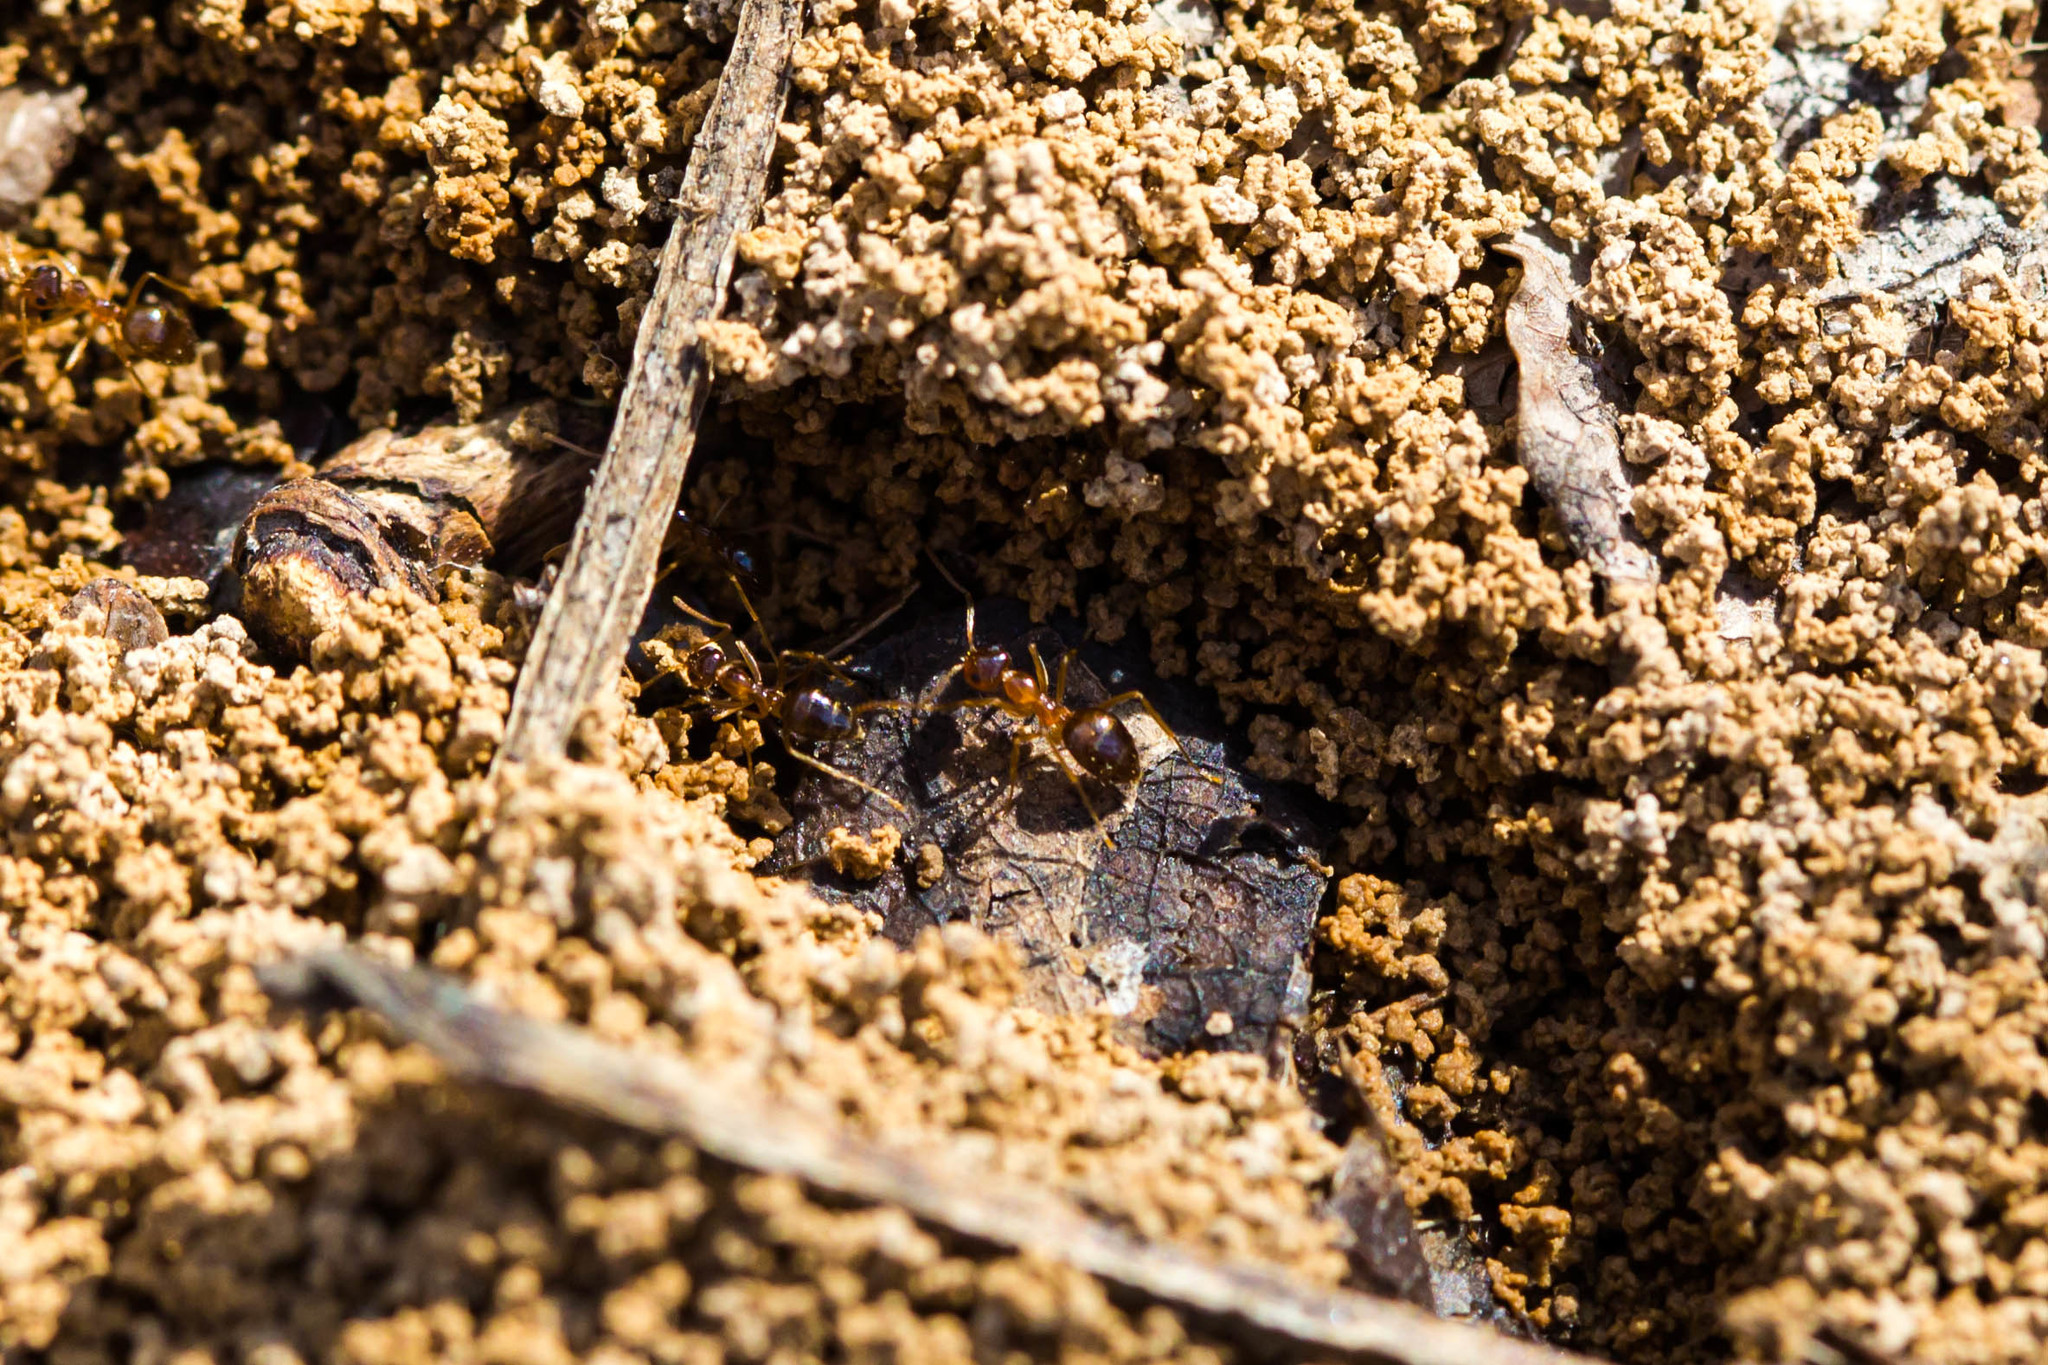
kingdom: Animalia
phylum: Arthropoda
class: Insecta
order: Hymenoptera
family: Formicidae
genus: Prenolepis
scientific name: Prenolepis imparis
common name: Small honey ant
